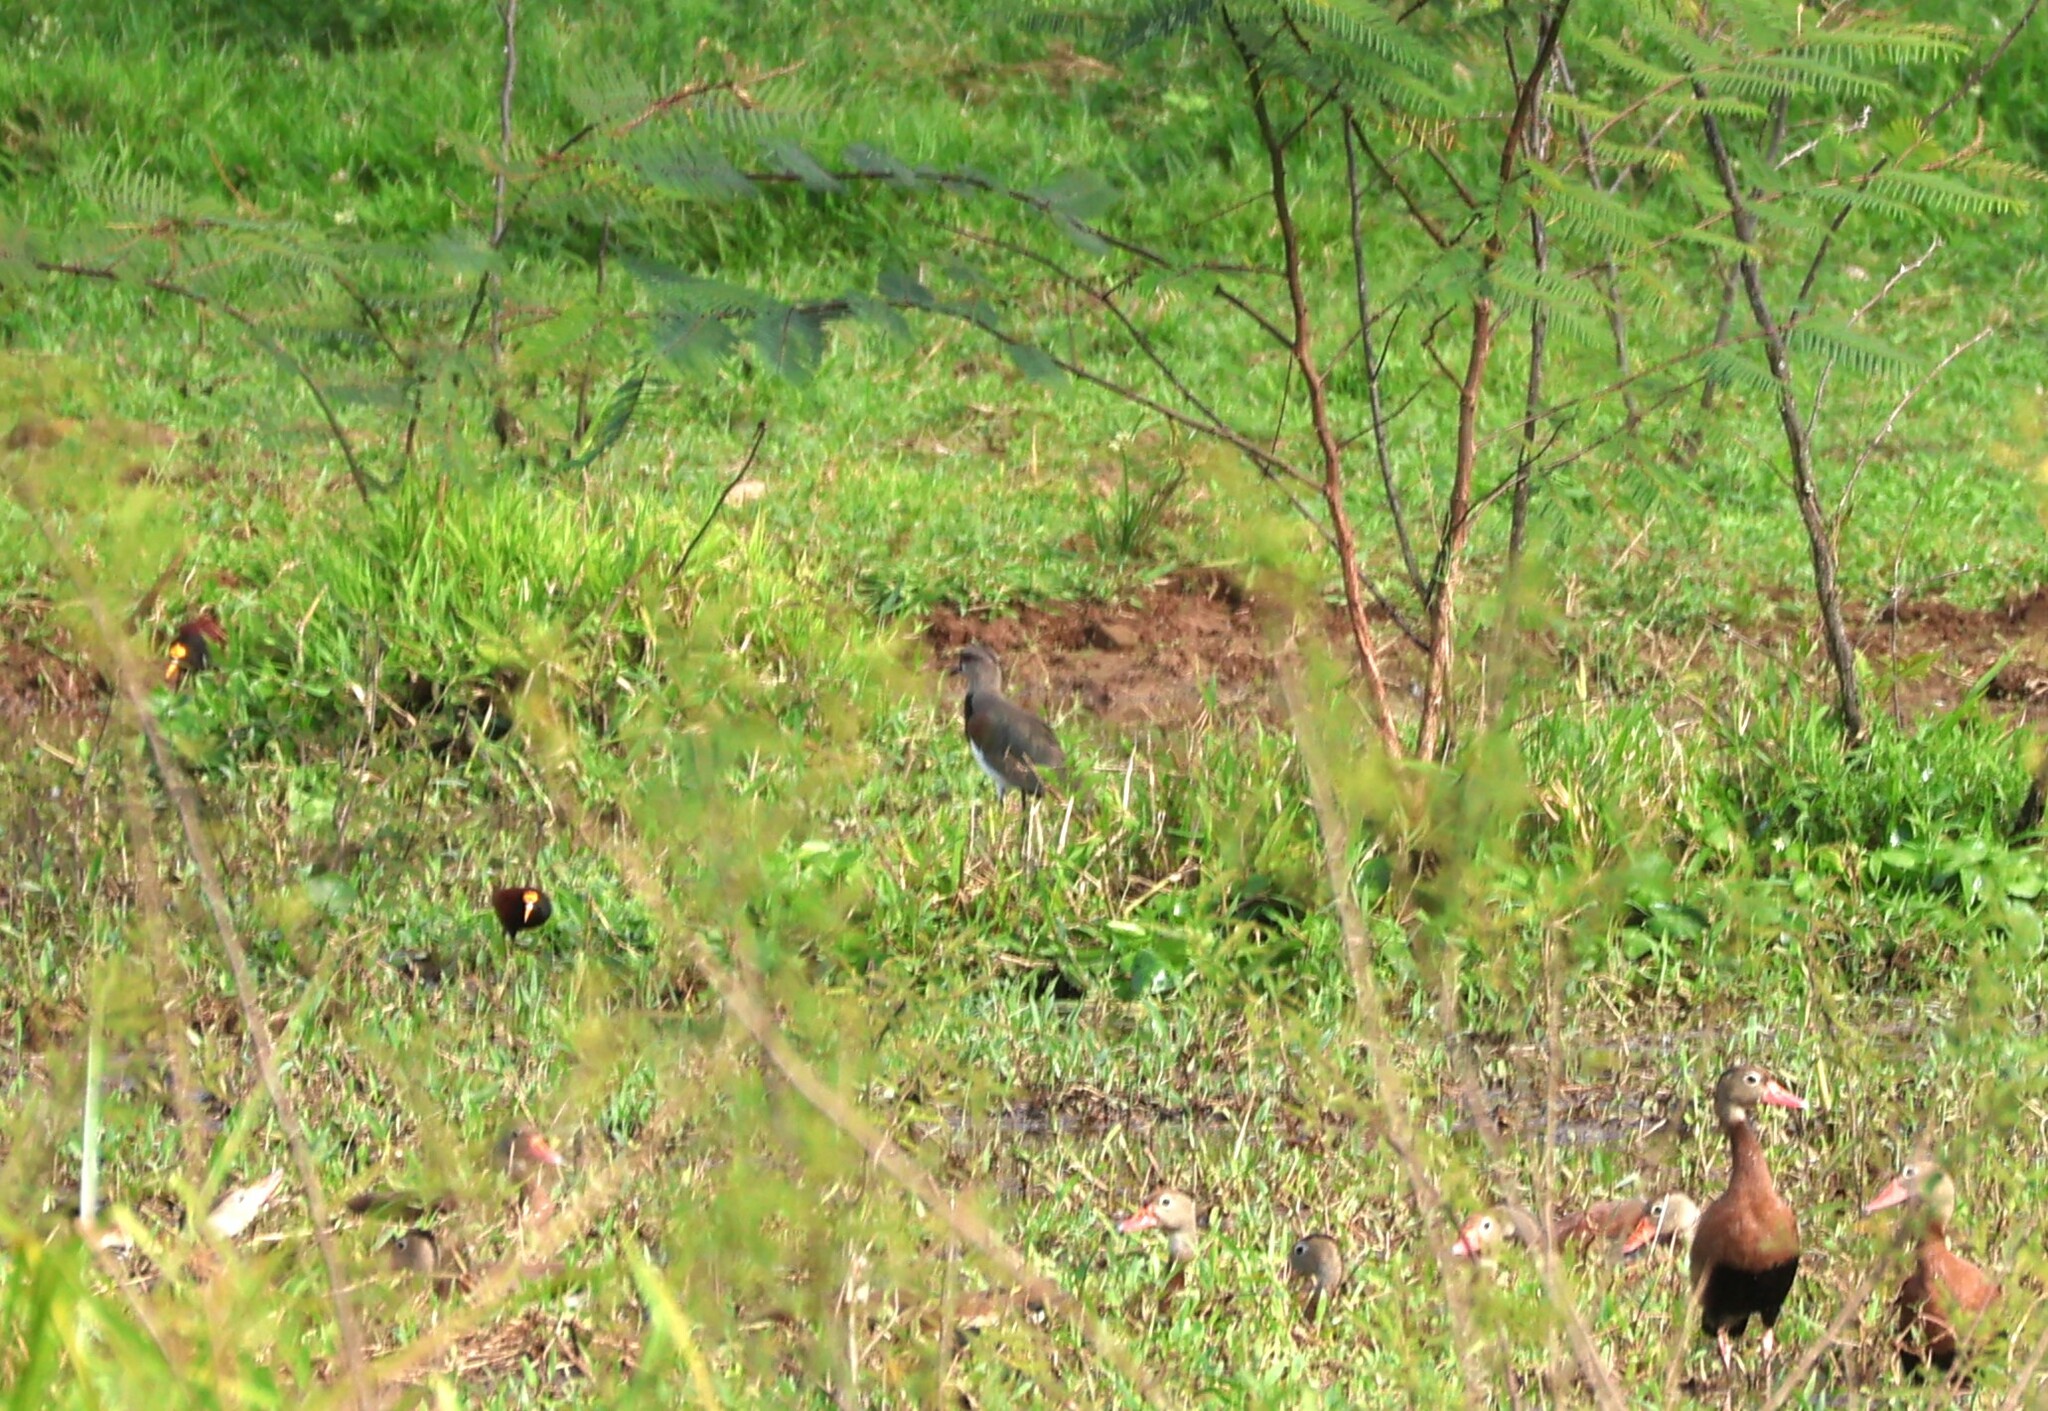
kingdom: Animalia
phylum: Chordata
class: Aves
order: Charadriiformes
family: Charadriidae
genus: Vanellus
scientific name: Vanellus chilensis
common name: Southern lapwing
